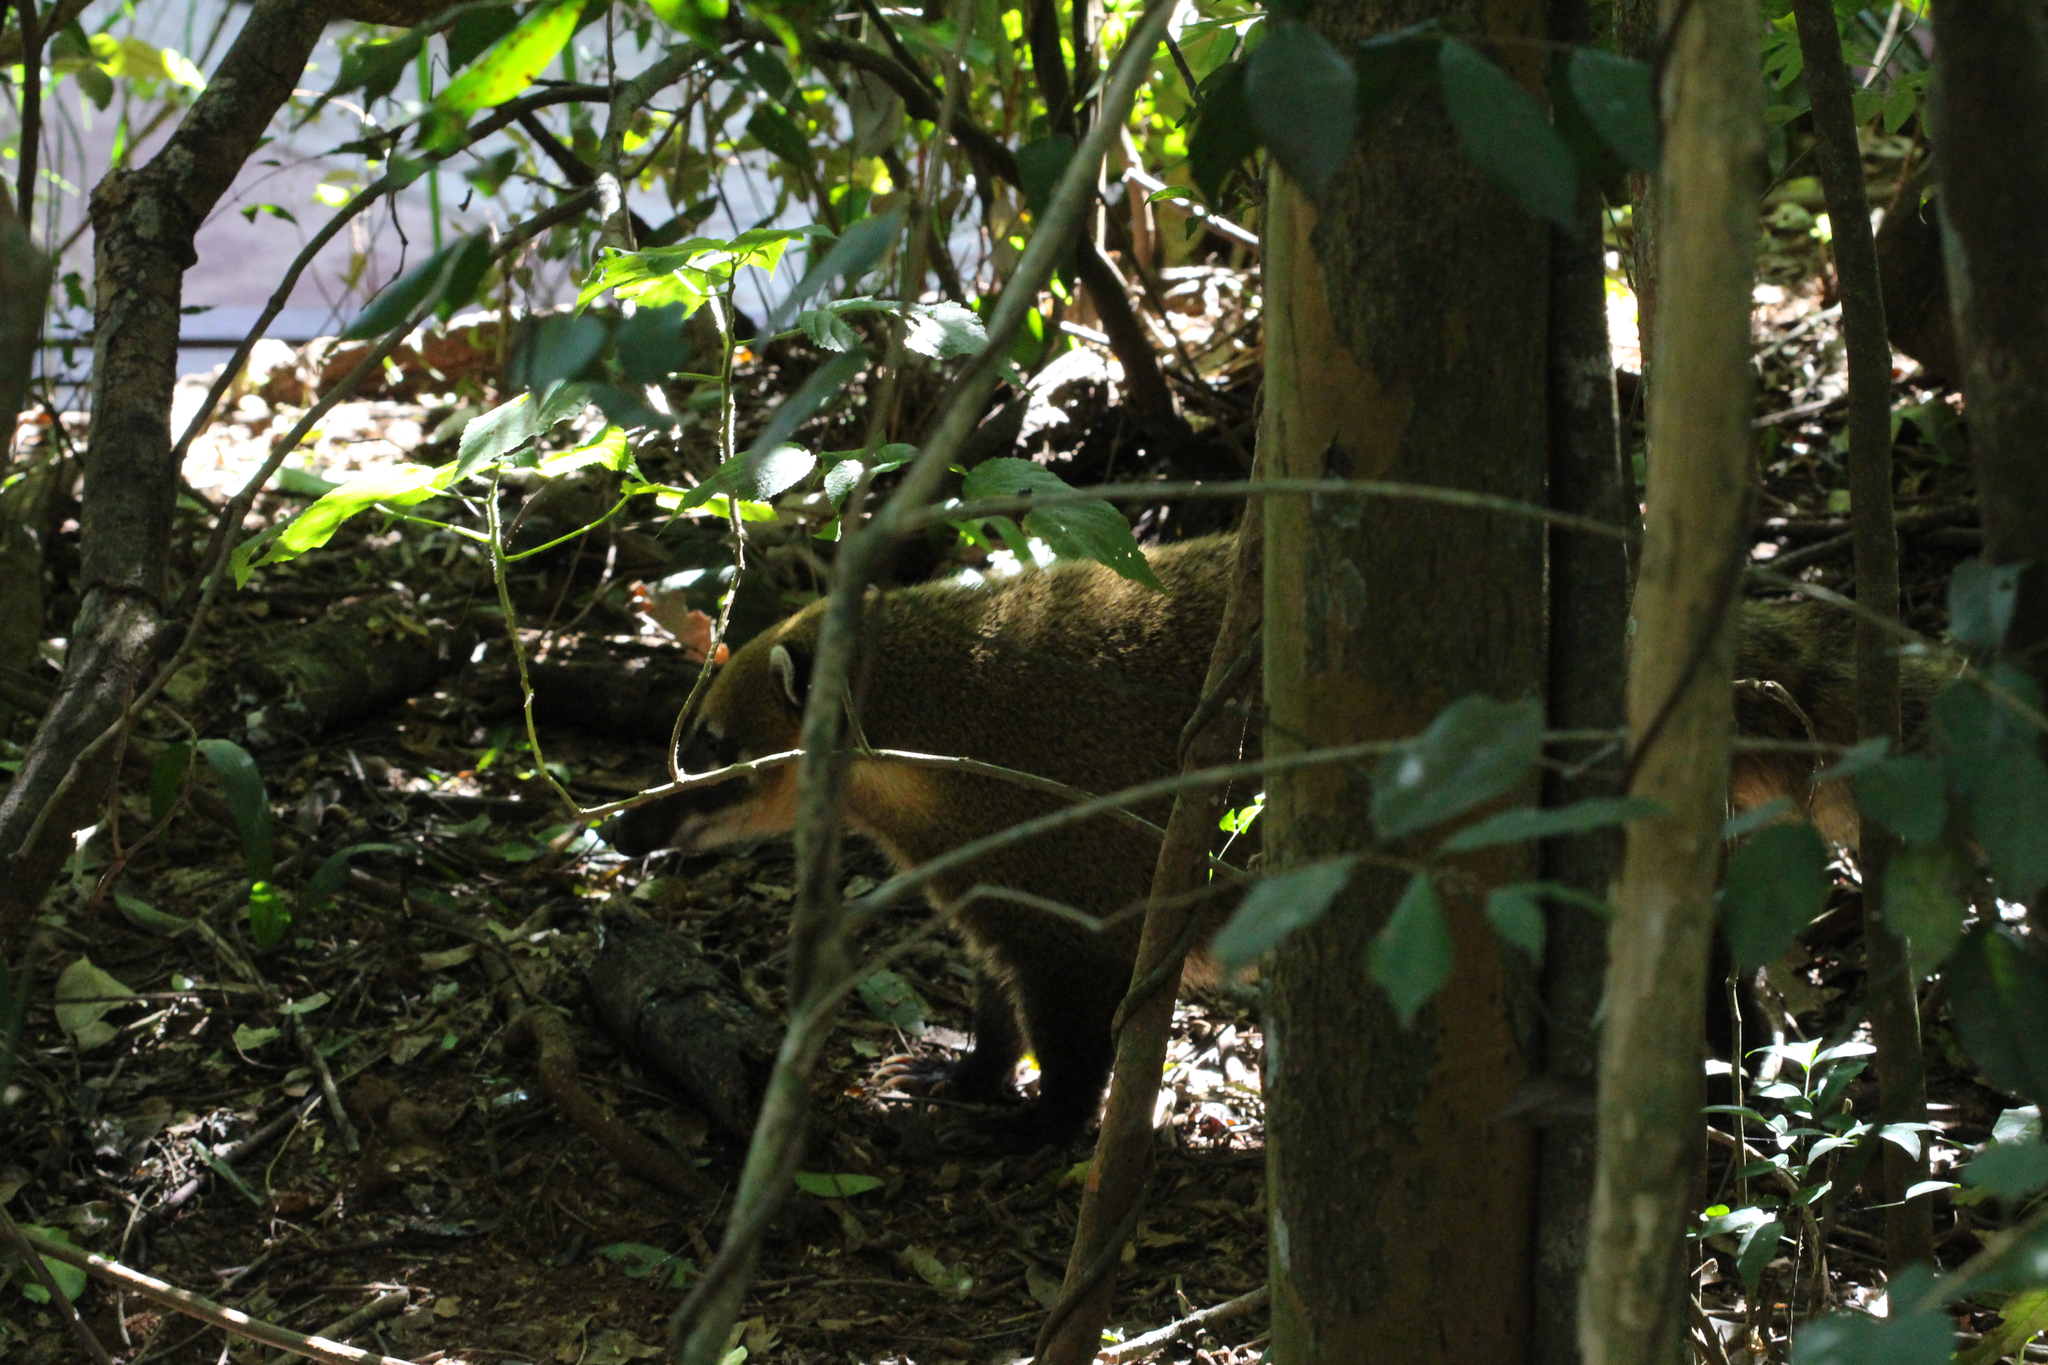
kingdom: Animalia
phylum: Chordata
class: Mammalia
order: Carnivora
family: Procyonidae
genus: Nasua
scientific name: Nasua nasua
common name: South american coati
